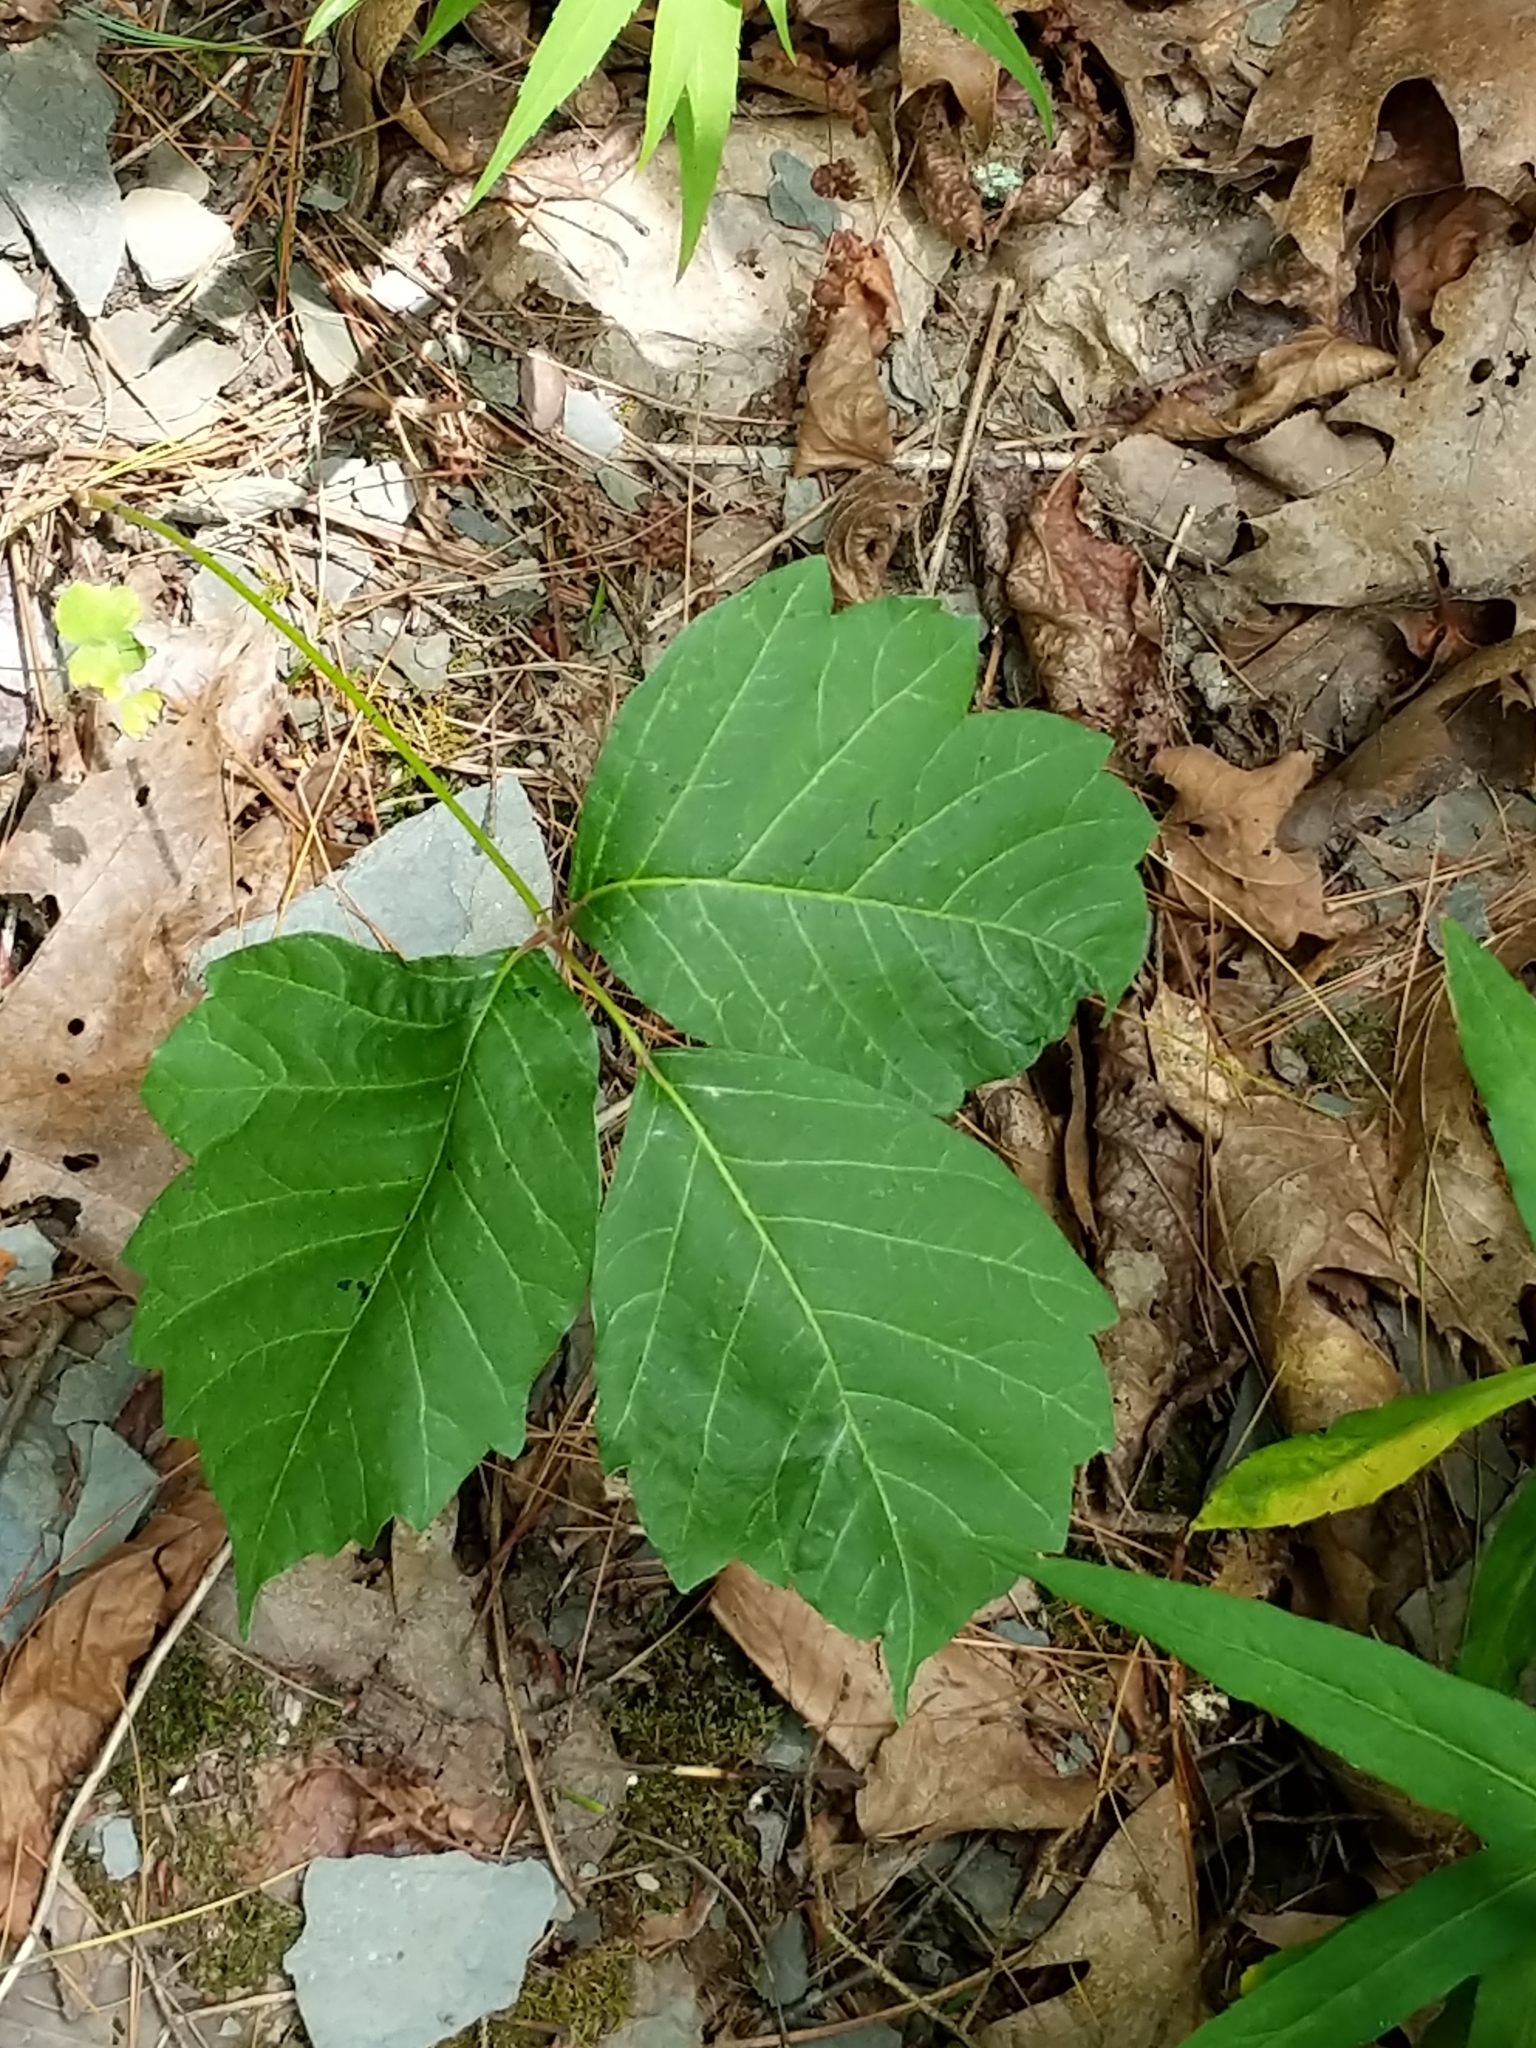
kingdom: Plantae
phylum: Tracheophyta
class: Magnoliopsida
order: Sapindales
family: Anacardiaceae
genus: Toxicodendron
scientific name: Toxicodendron
